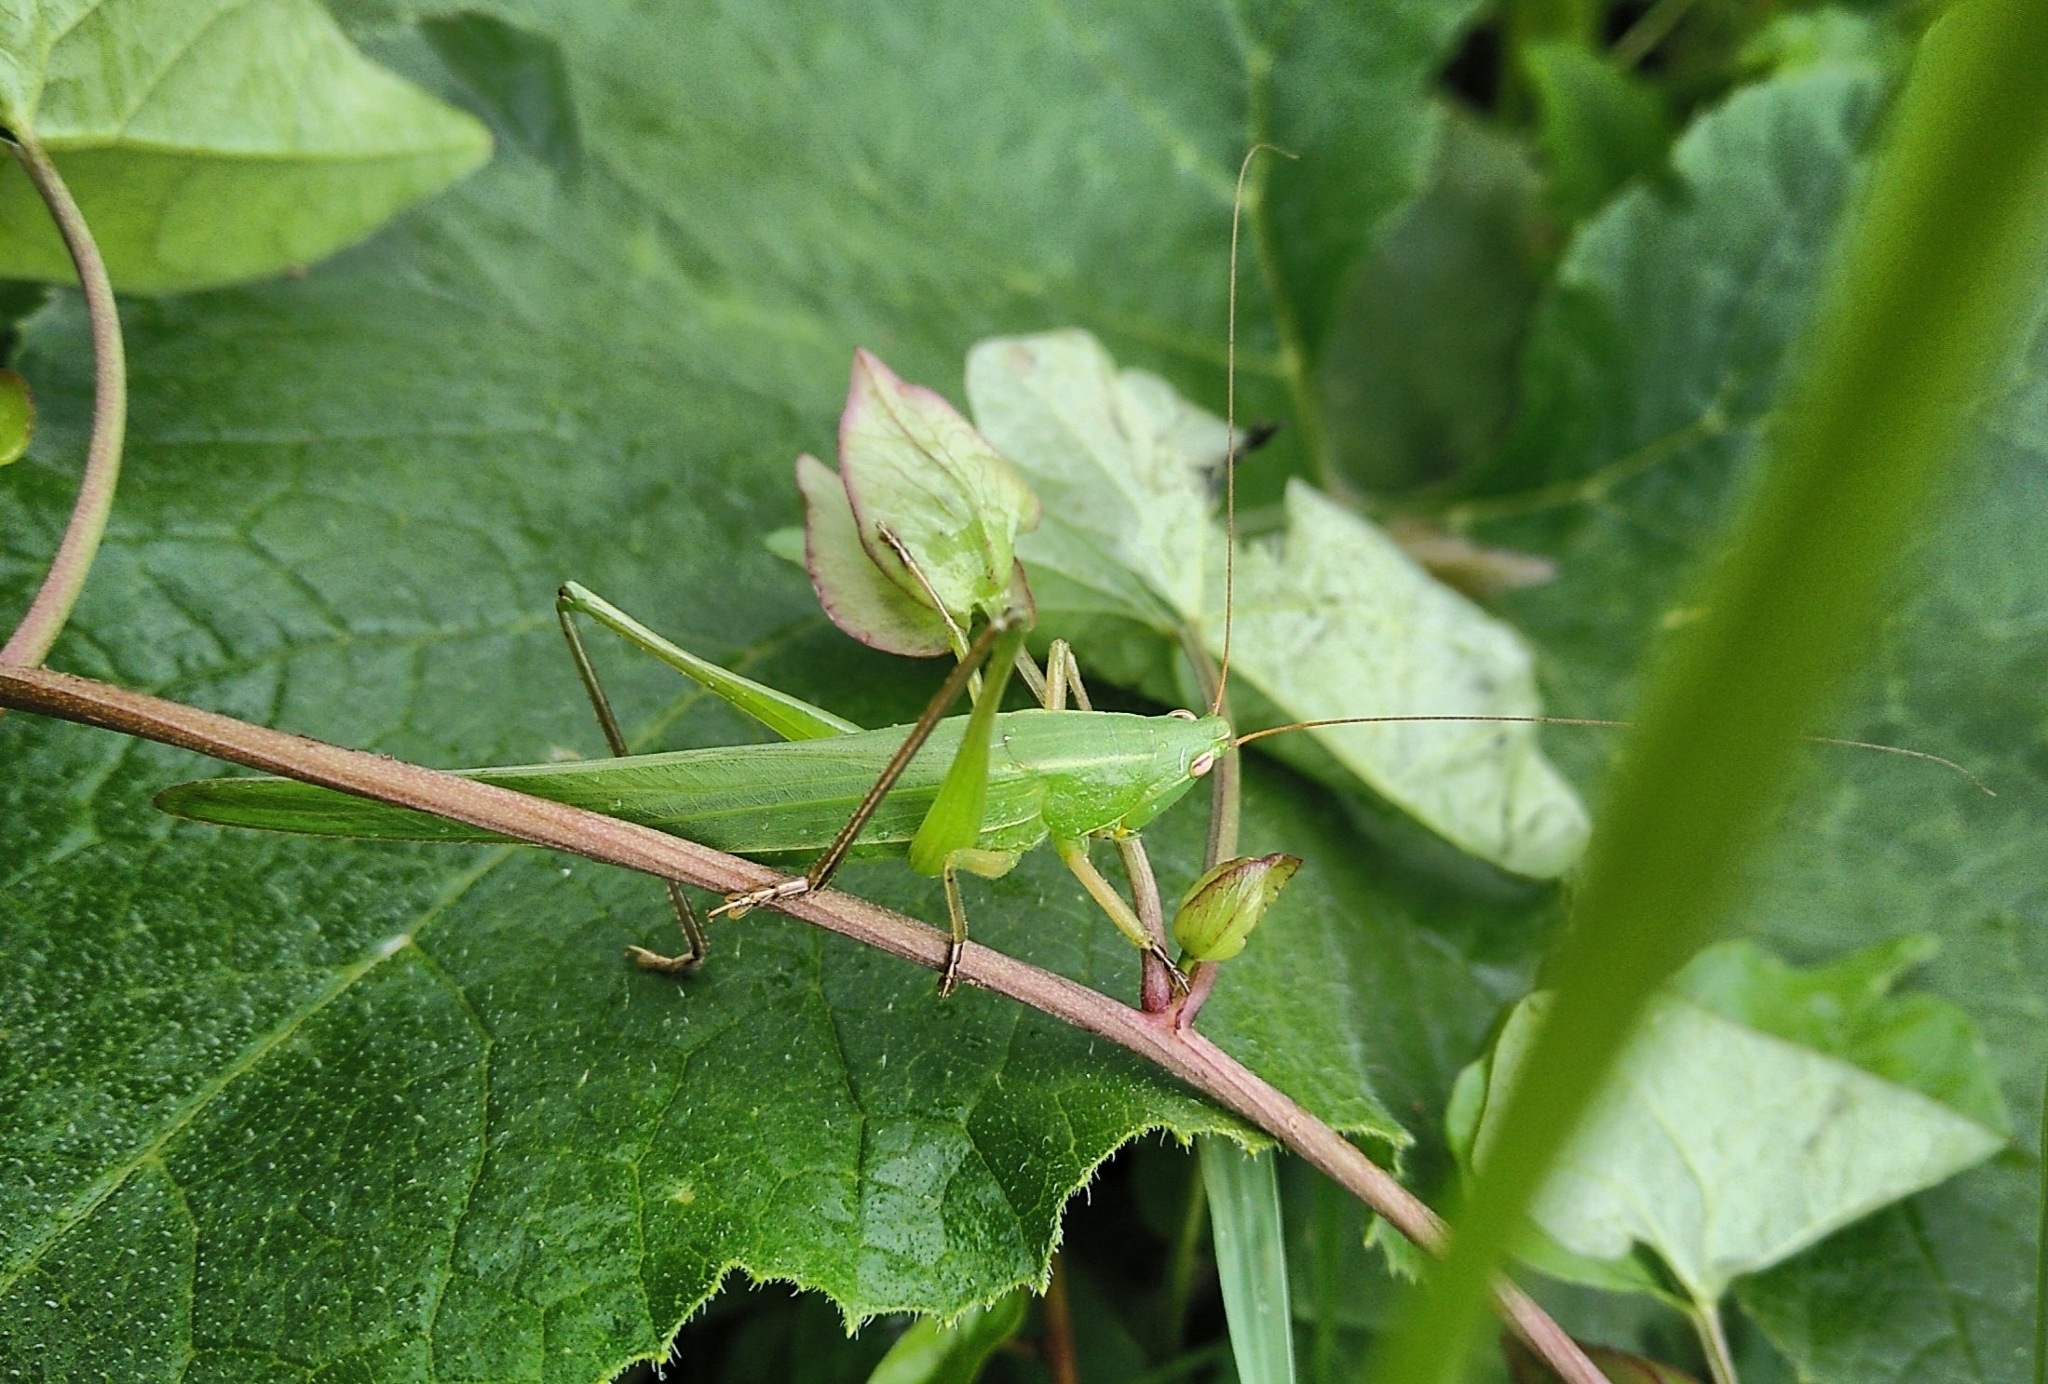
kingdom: Animalia
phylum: Arthropoda
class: Insecta
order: Orthoptera
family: Tettigoniidae
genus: Ruspolia
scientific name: Ruspolia nitidula
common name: Large conehead
